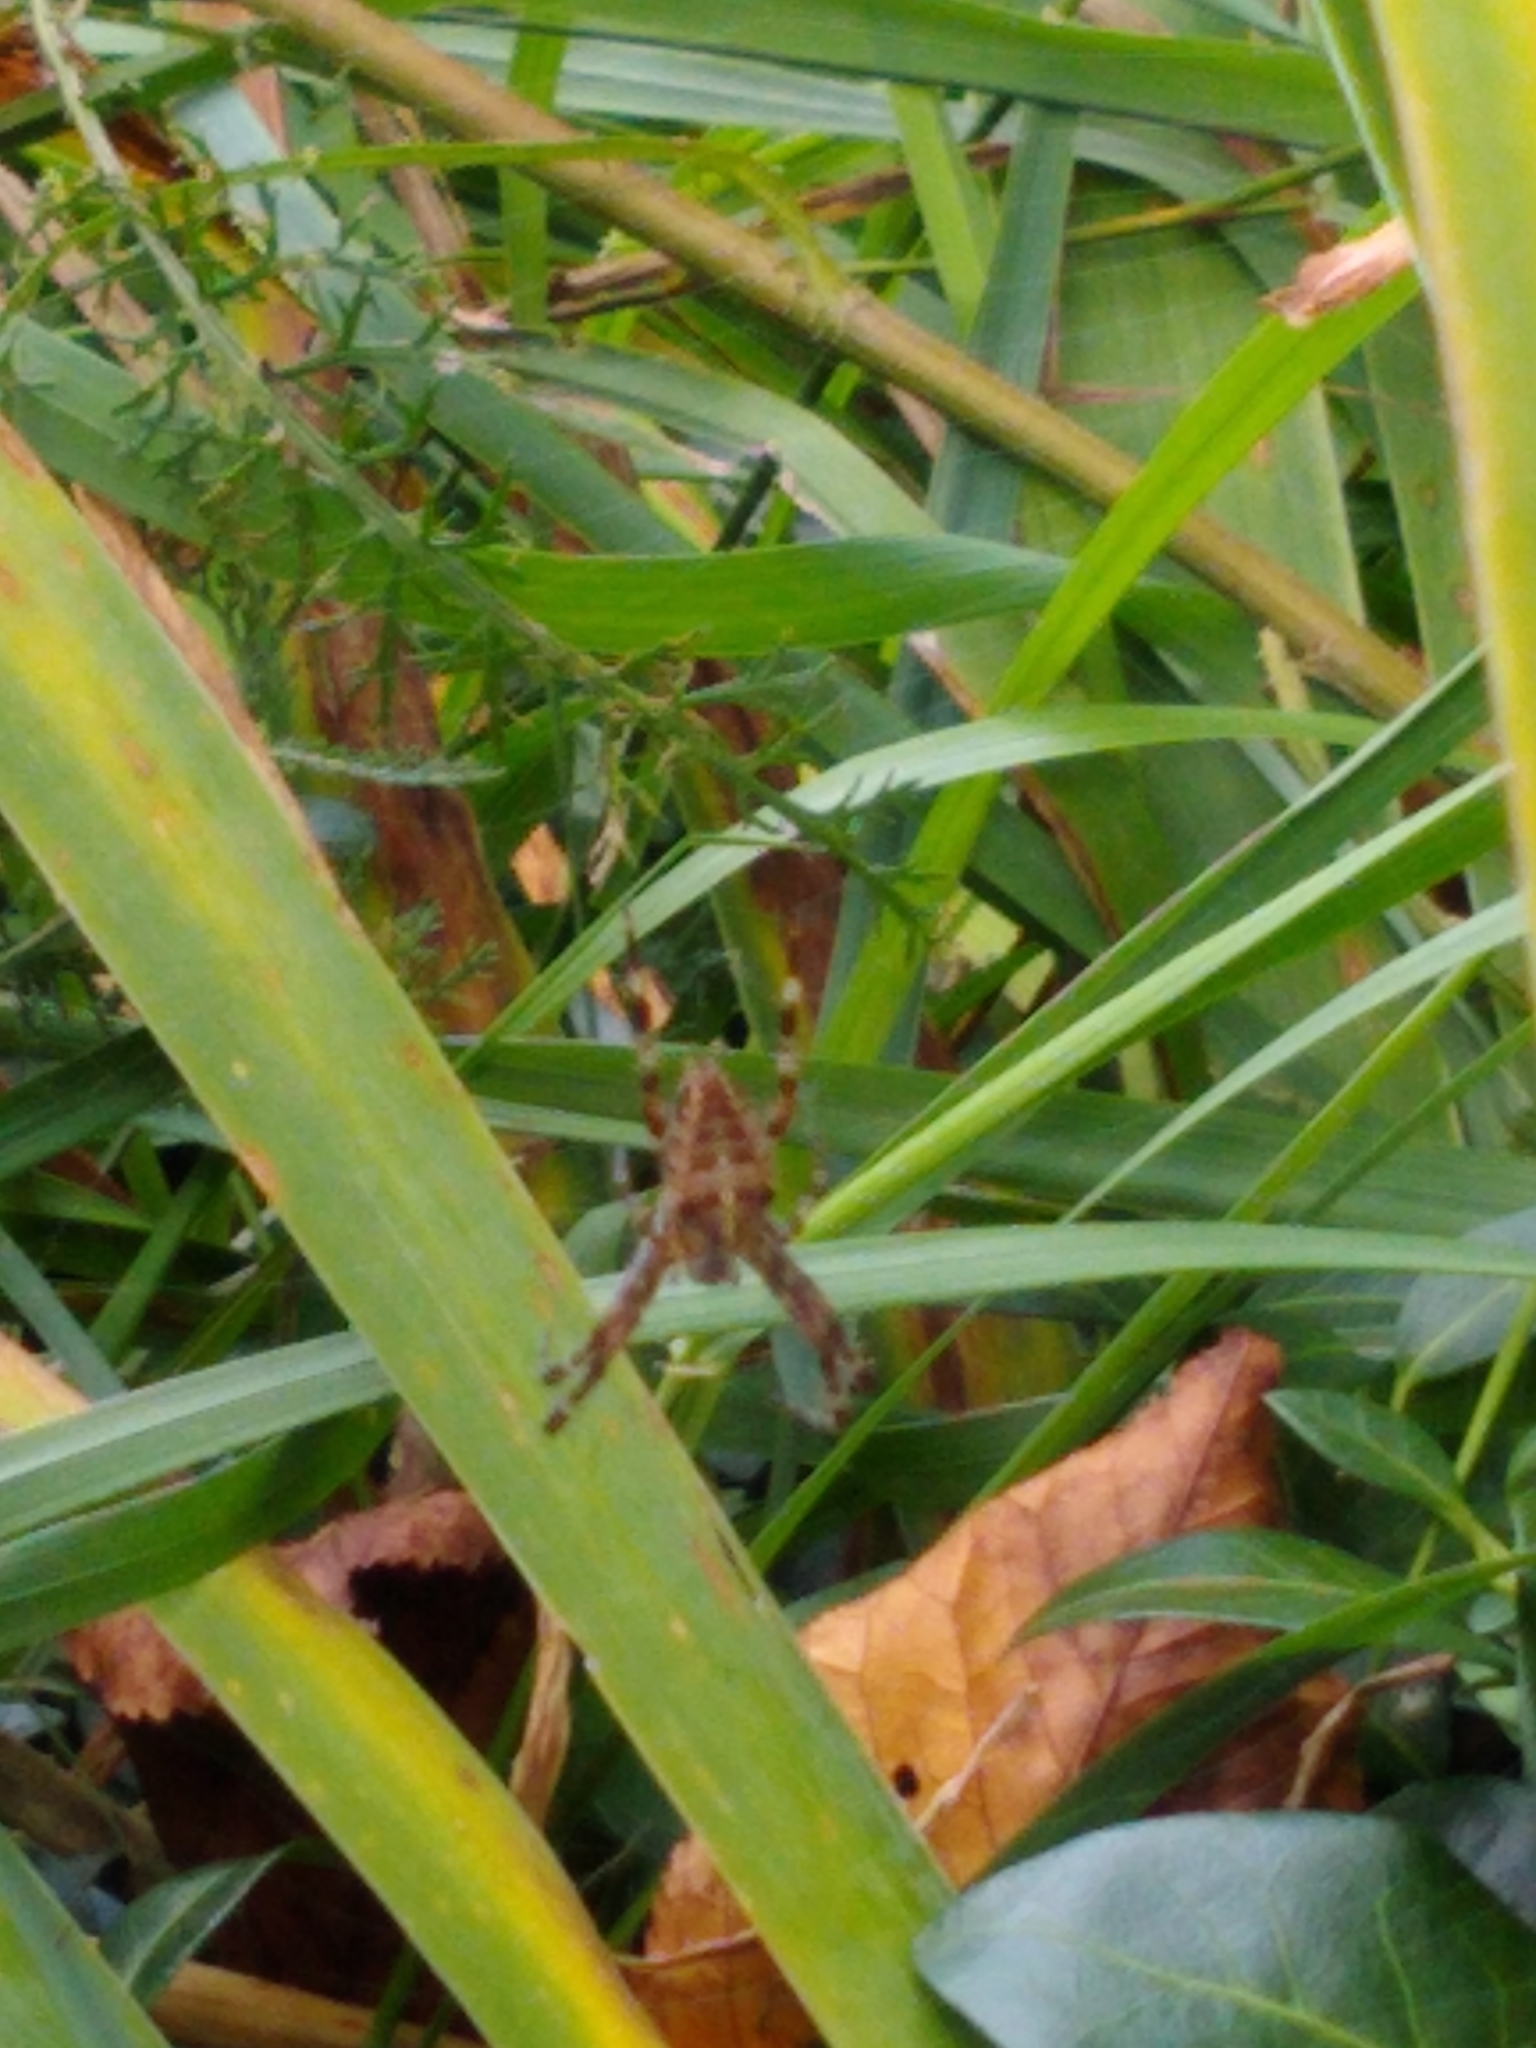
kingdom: Animalia
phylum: Arthropoda
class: Arachnida
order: Araneae
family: Araneidae
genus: Araneus
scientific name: Araneus diadematus
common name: Cross orbweaver
